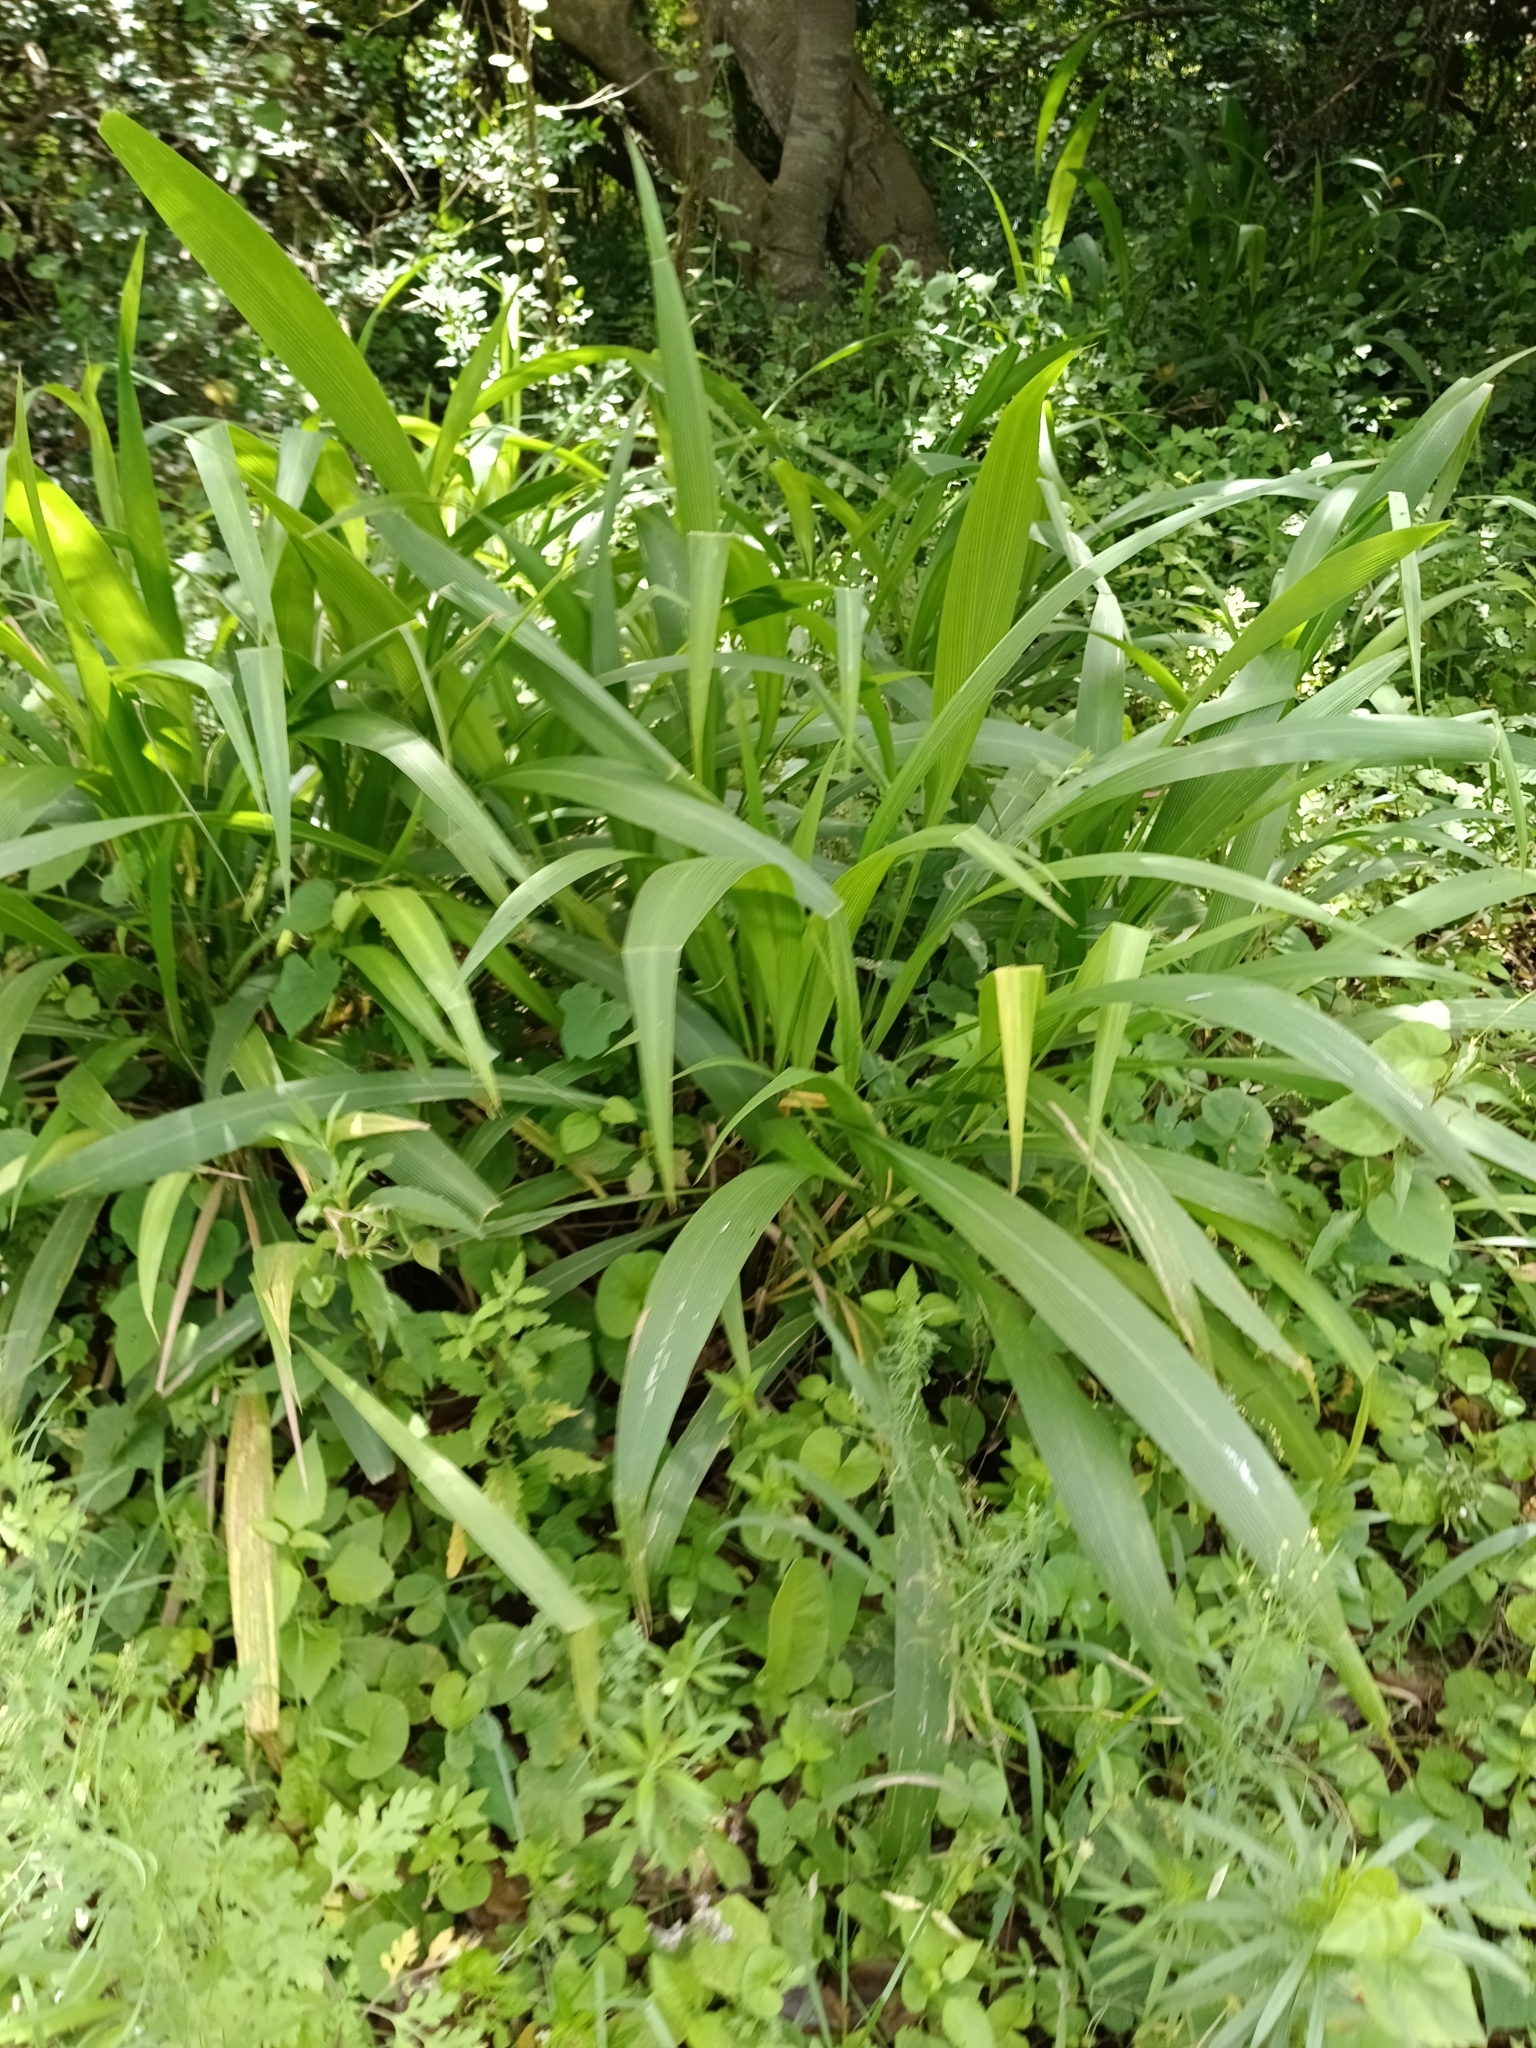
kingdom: Plantae
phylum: Tracheophyta
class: Liliopsida
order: Poales
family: Poaceae
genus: Setaria
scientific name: Setaria megaphylla
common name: Bigleaf bristlegrass
